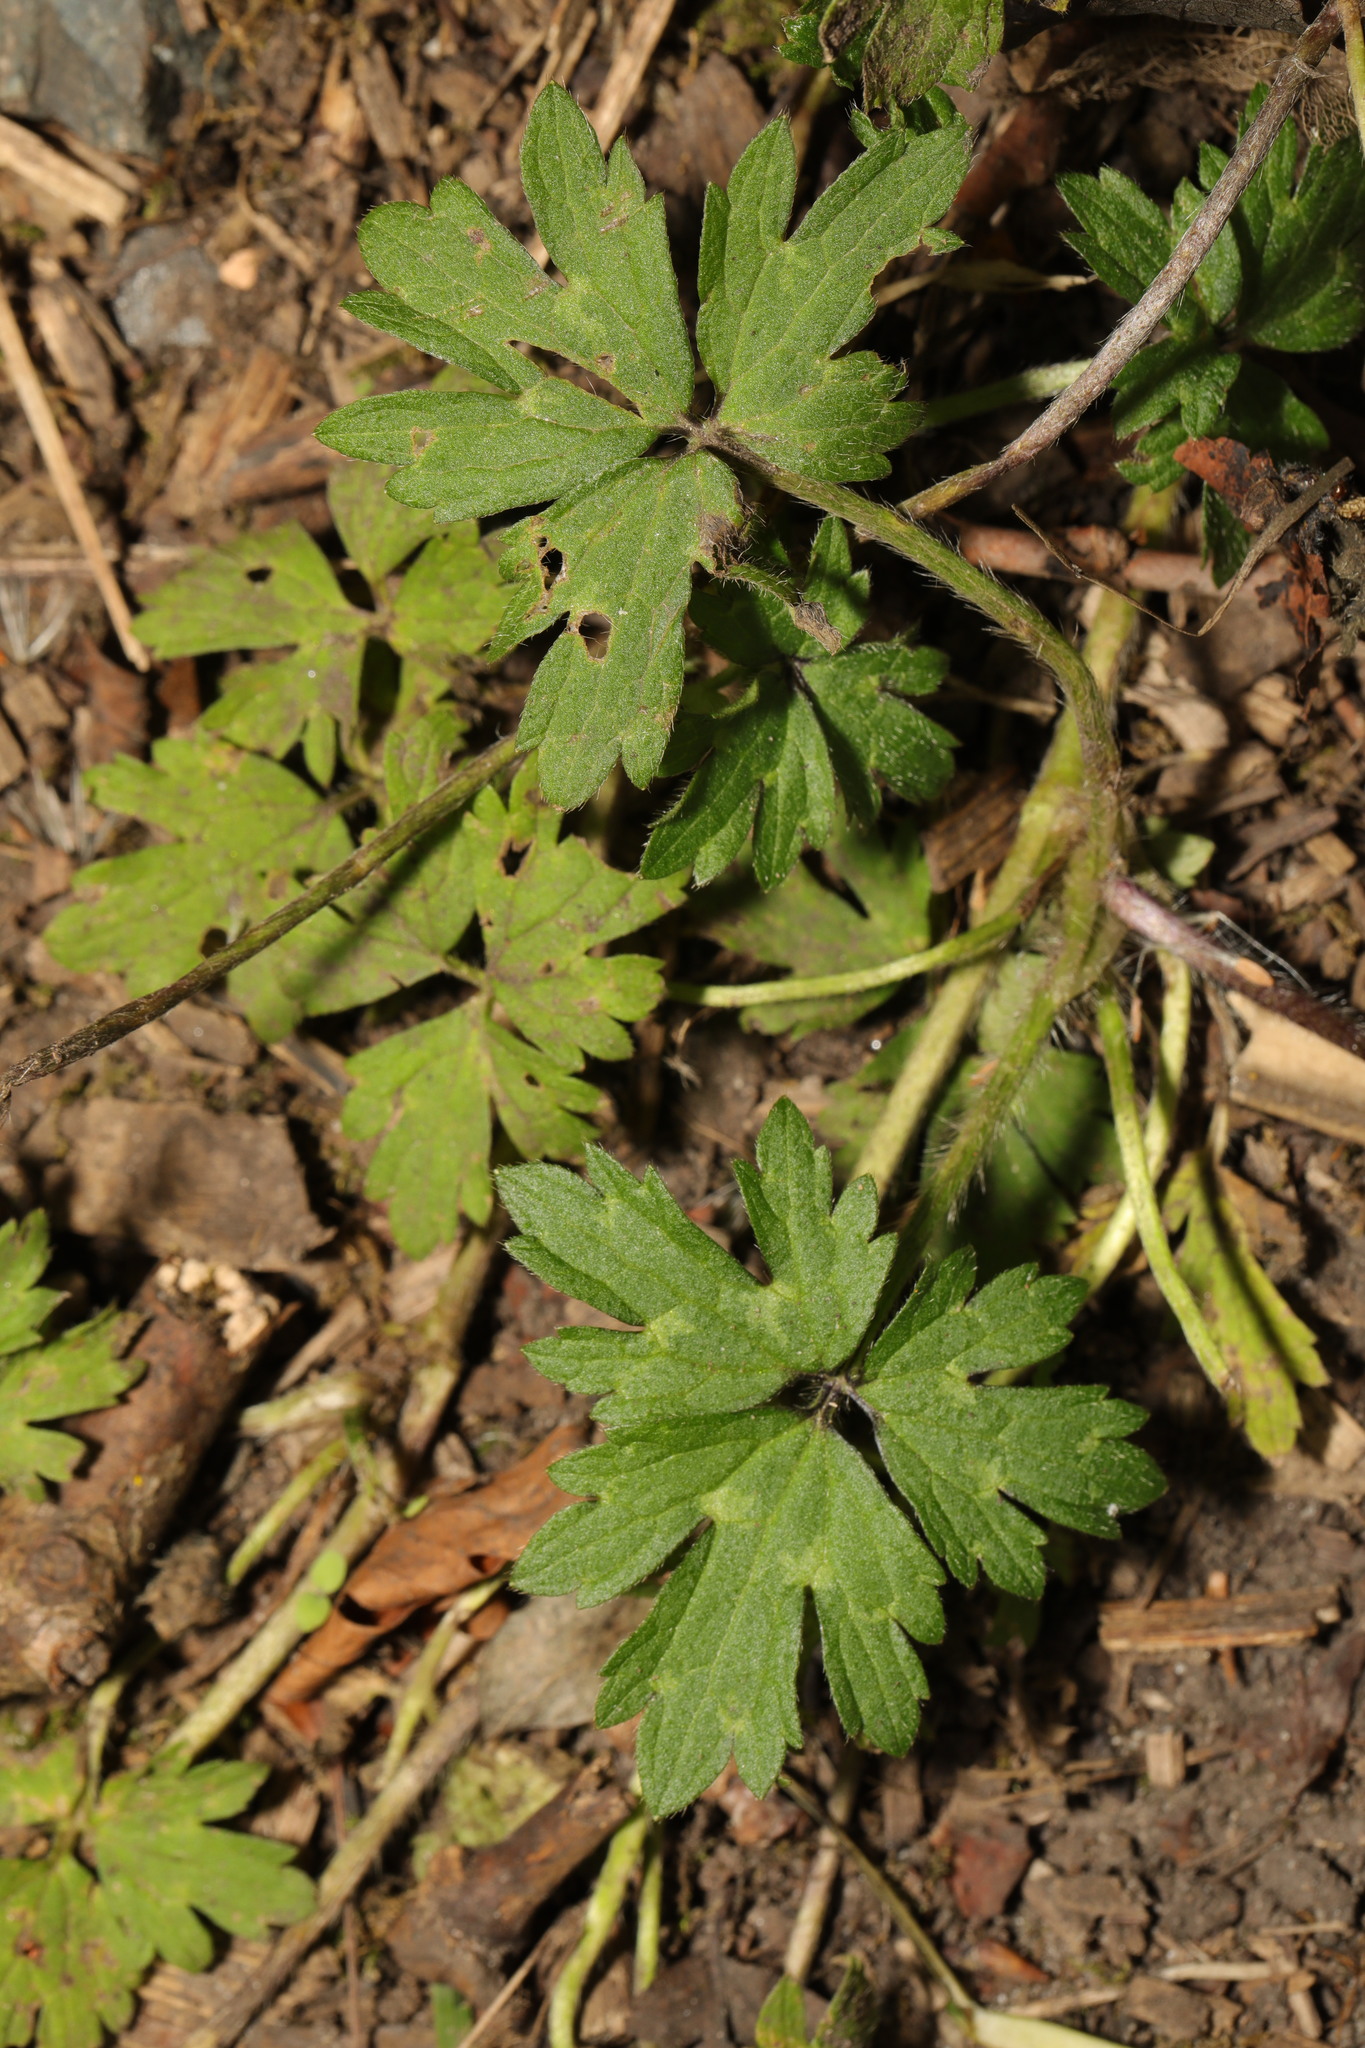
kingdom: Plantae
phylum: Tracheophyta
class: Magnoliopsida
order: Ranunculales
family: Ranunculaceae
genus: Ranunculus
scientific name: Ranunculus repens
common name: Creeping buttercup
